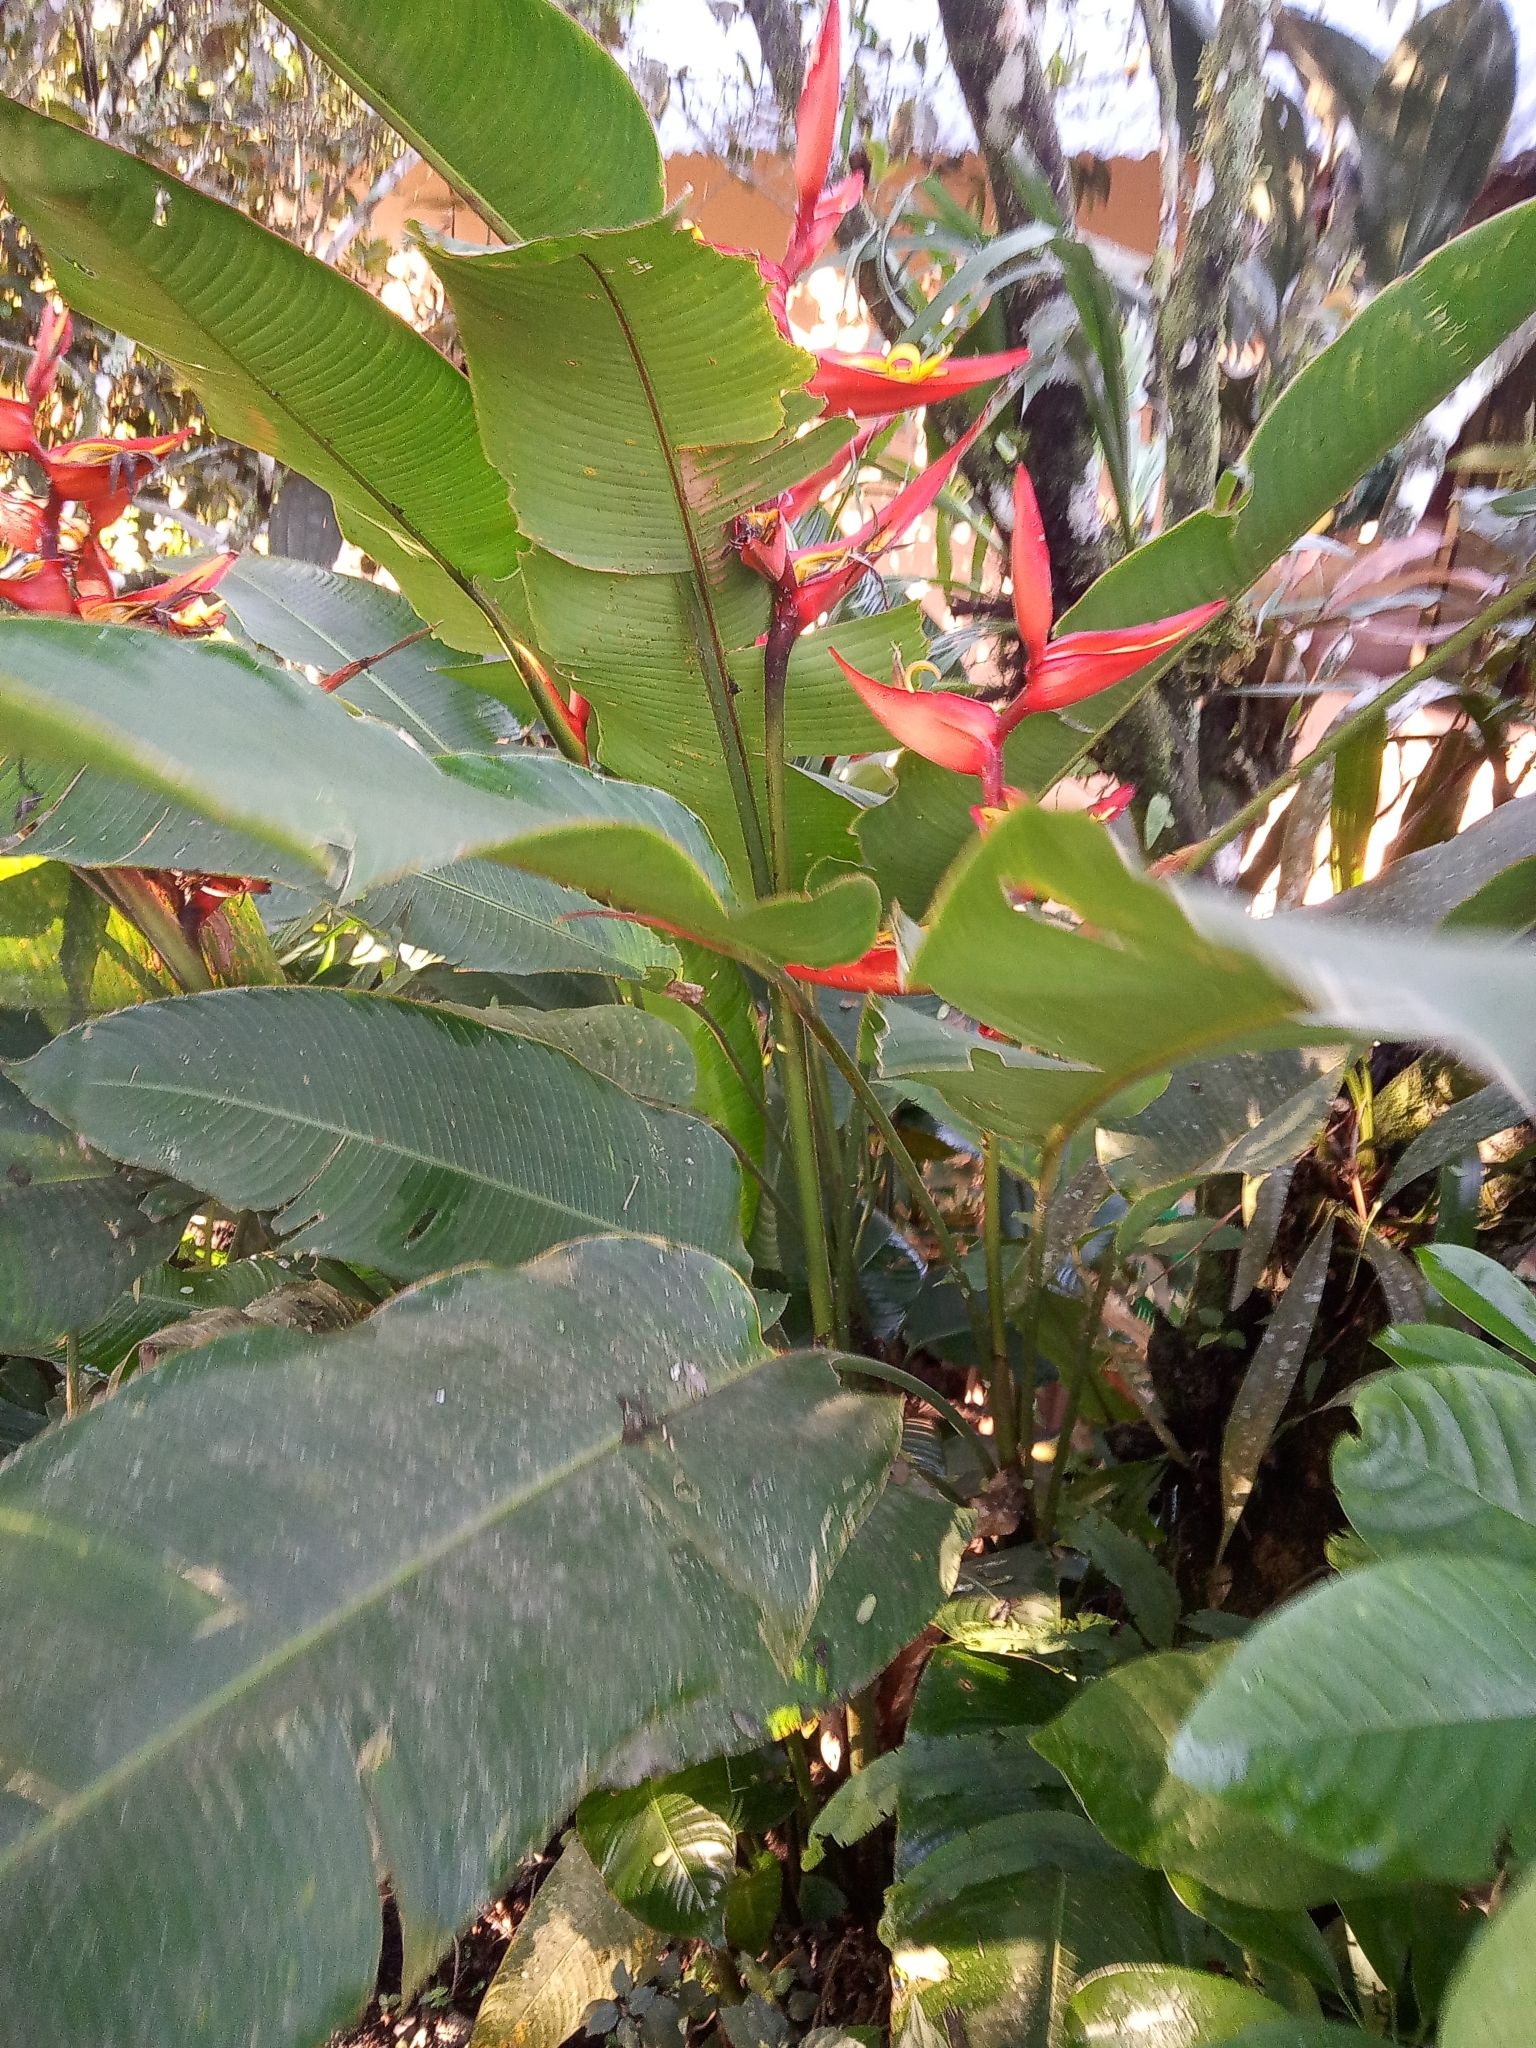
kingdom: Plantae
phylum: Tracheophyta
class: Liliopsida
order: Zingiberales
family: Heliconiaceae
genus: Heliconia
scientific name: Heliconia latispatha
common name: Expanded lobsterclaw
